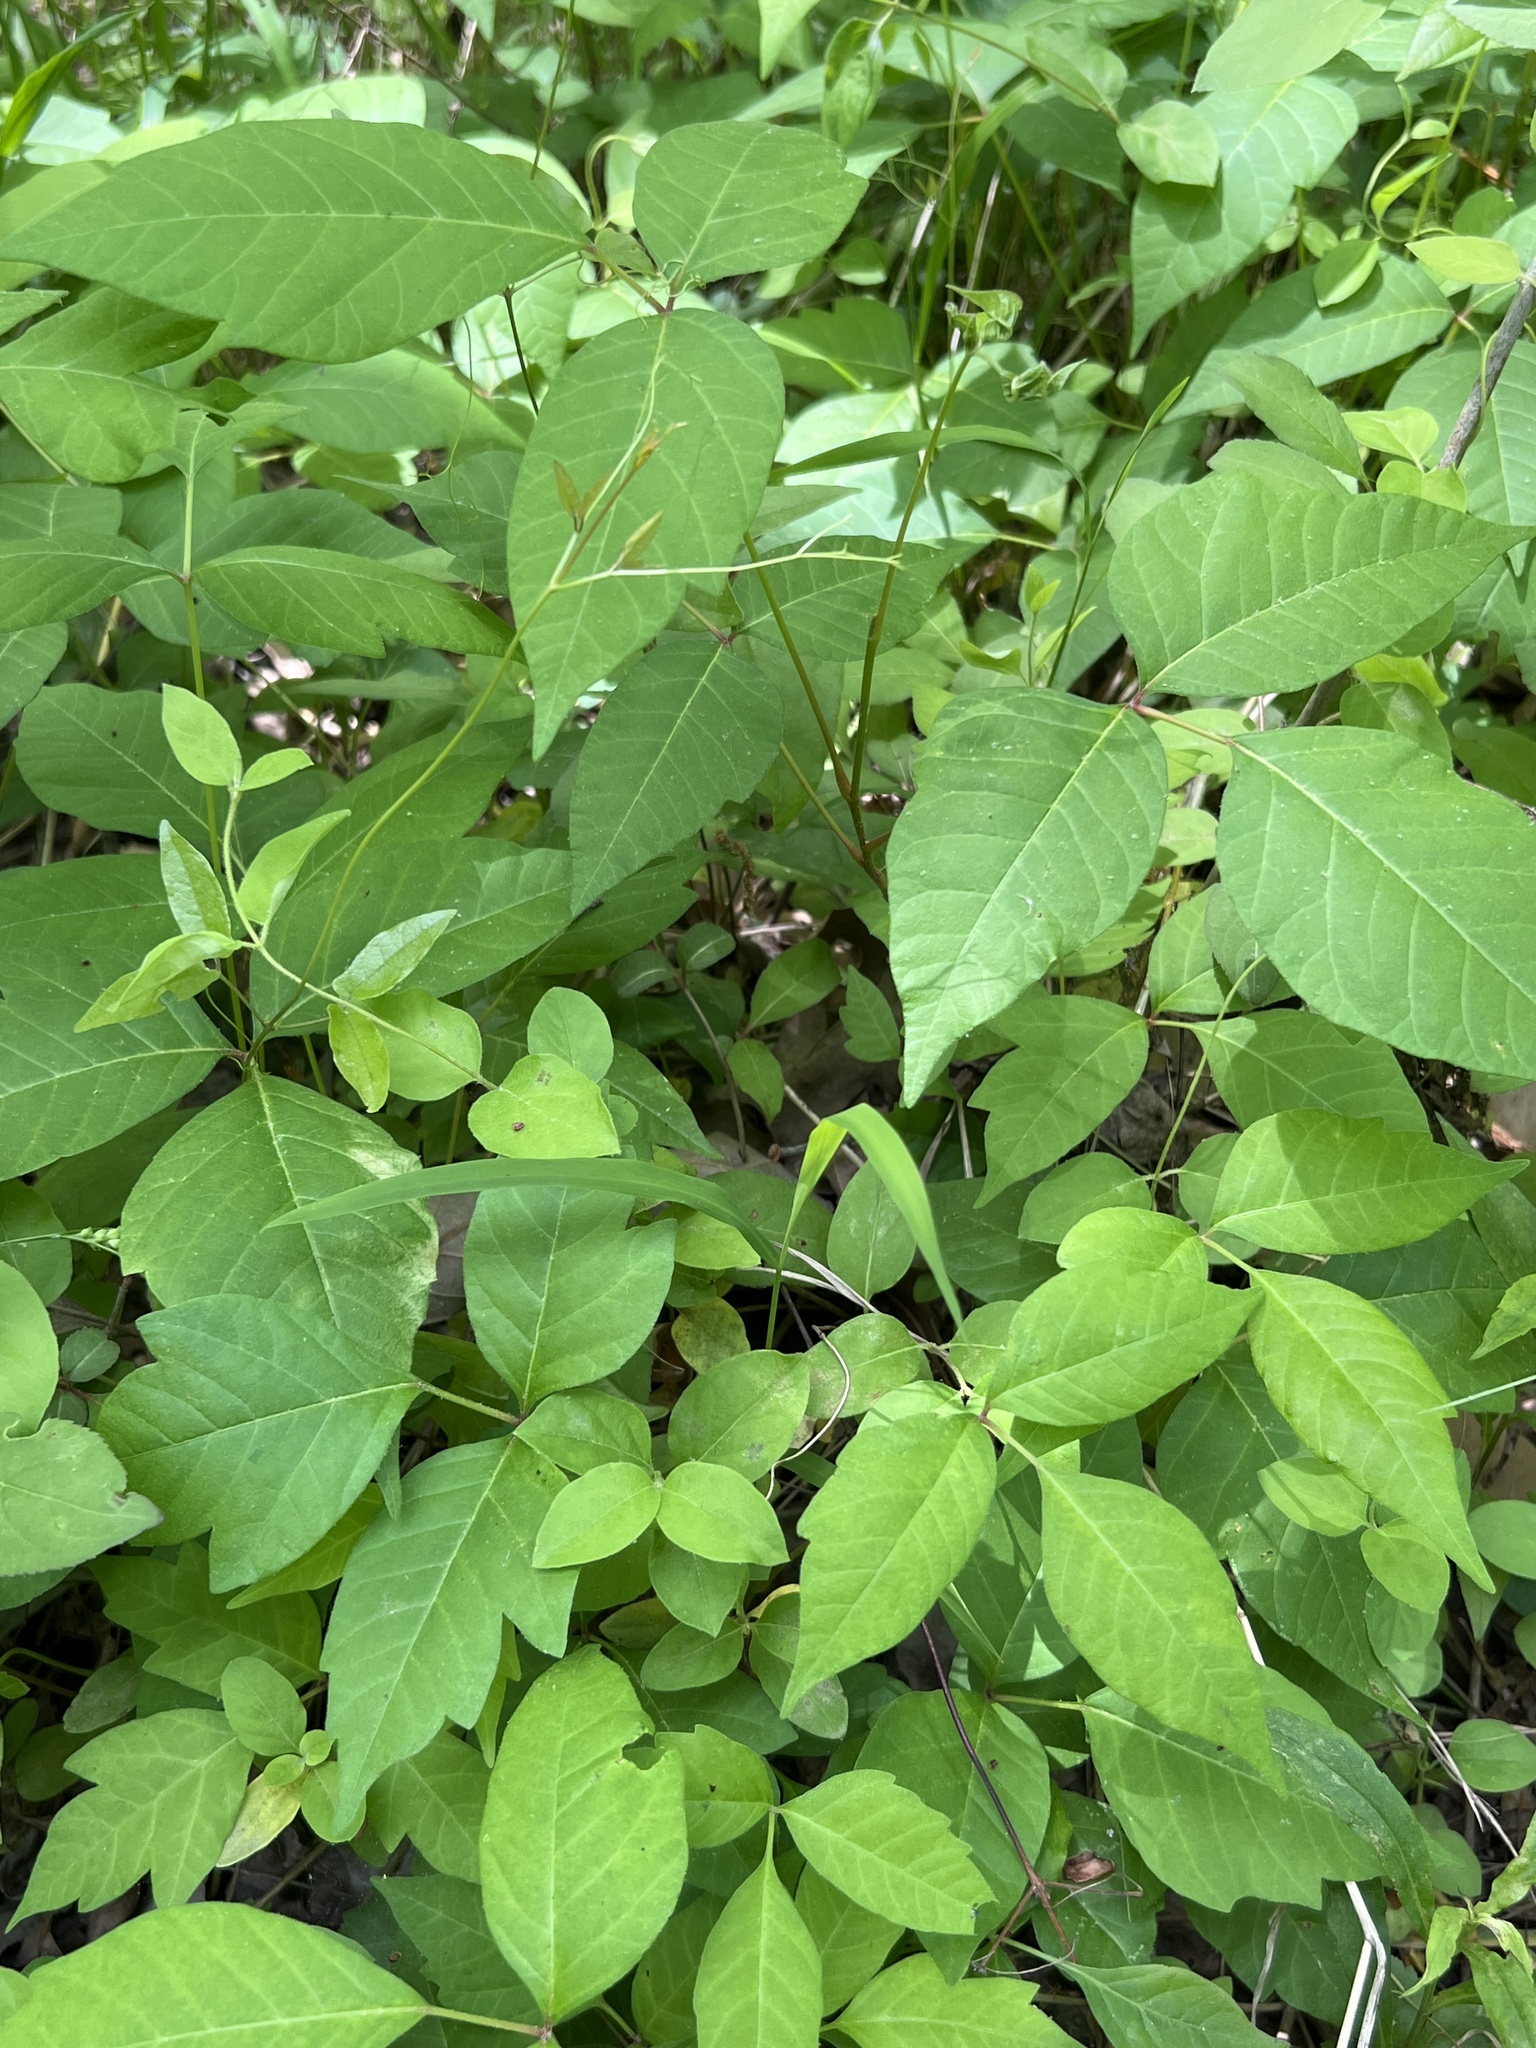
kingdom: Plantae
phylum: Tracheophyta
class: Magnoliopsida
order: Sapindales
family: Anacardiaceae
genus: Toxicodendron
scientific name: Toxicodendron radicans
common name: Poison ivy
